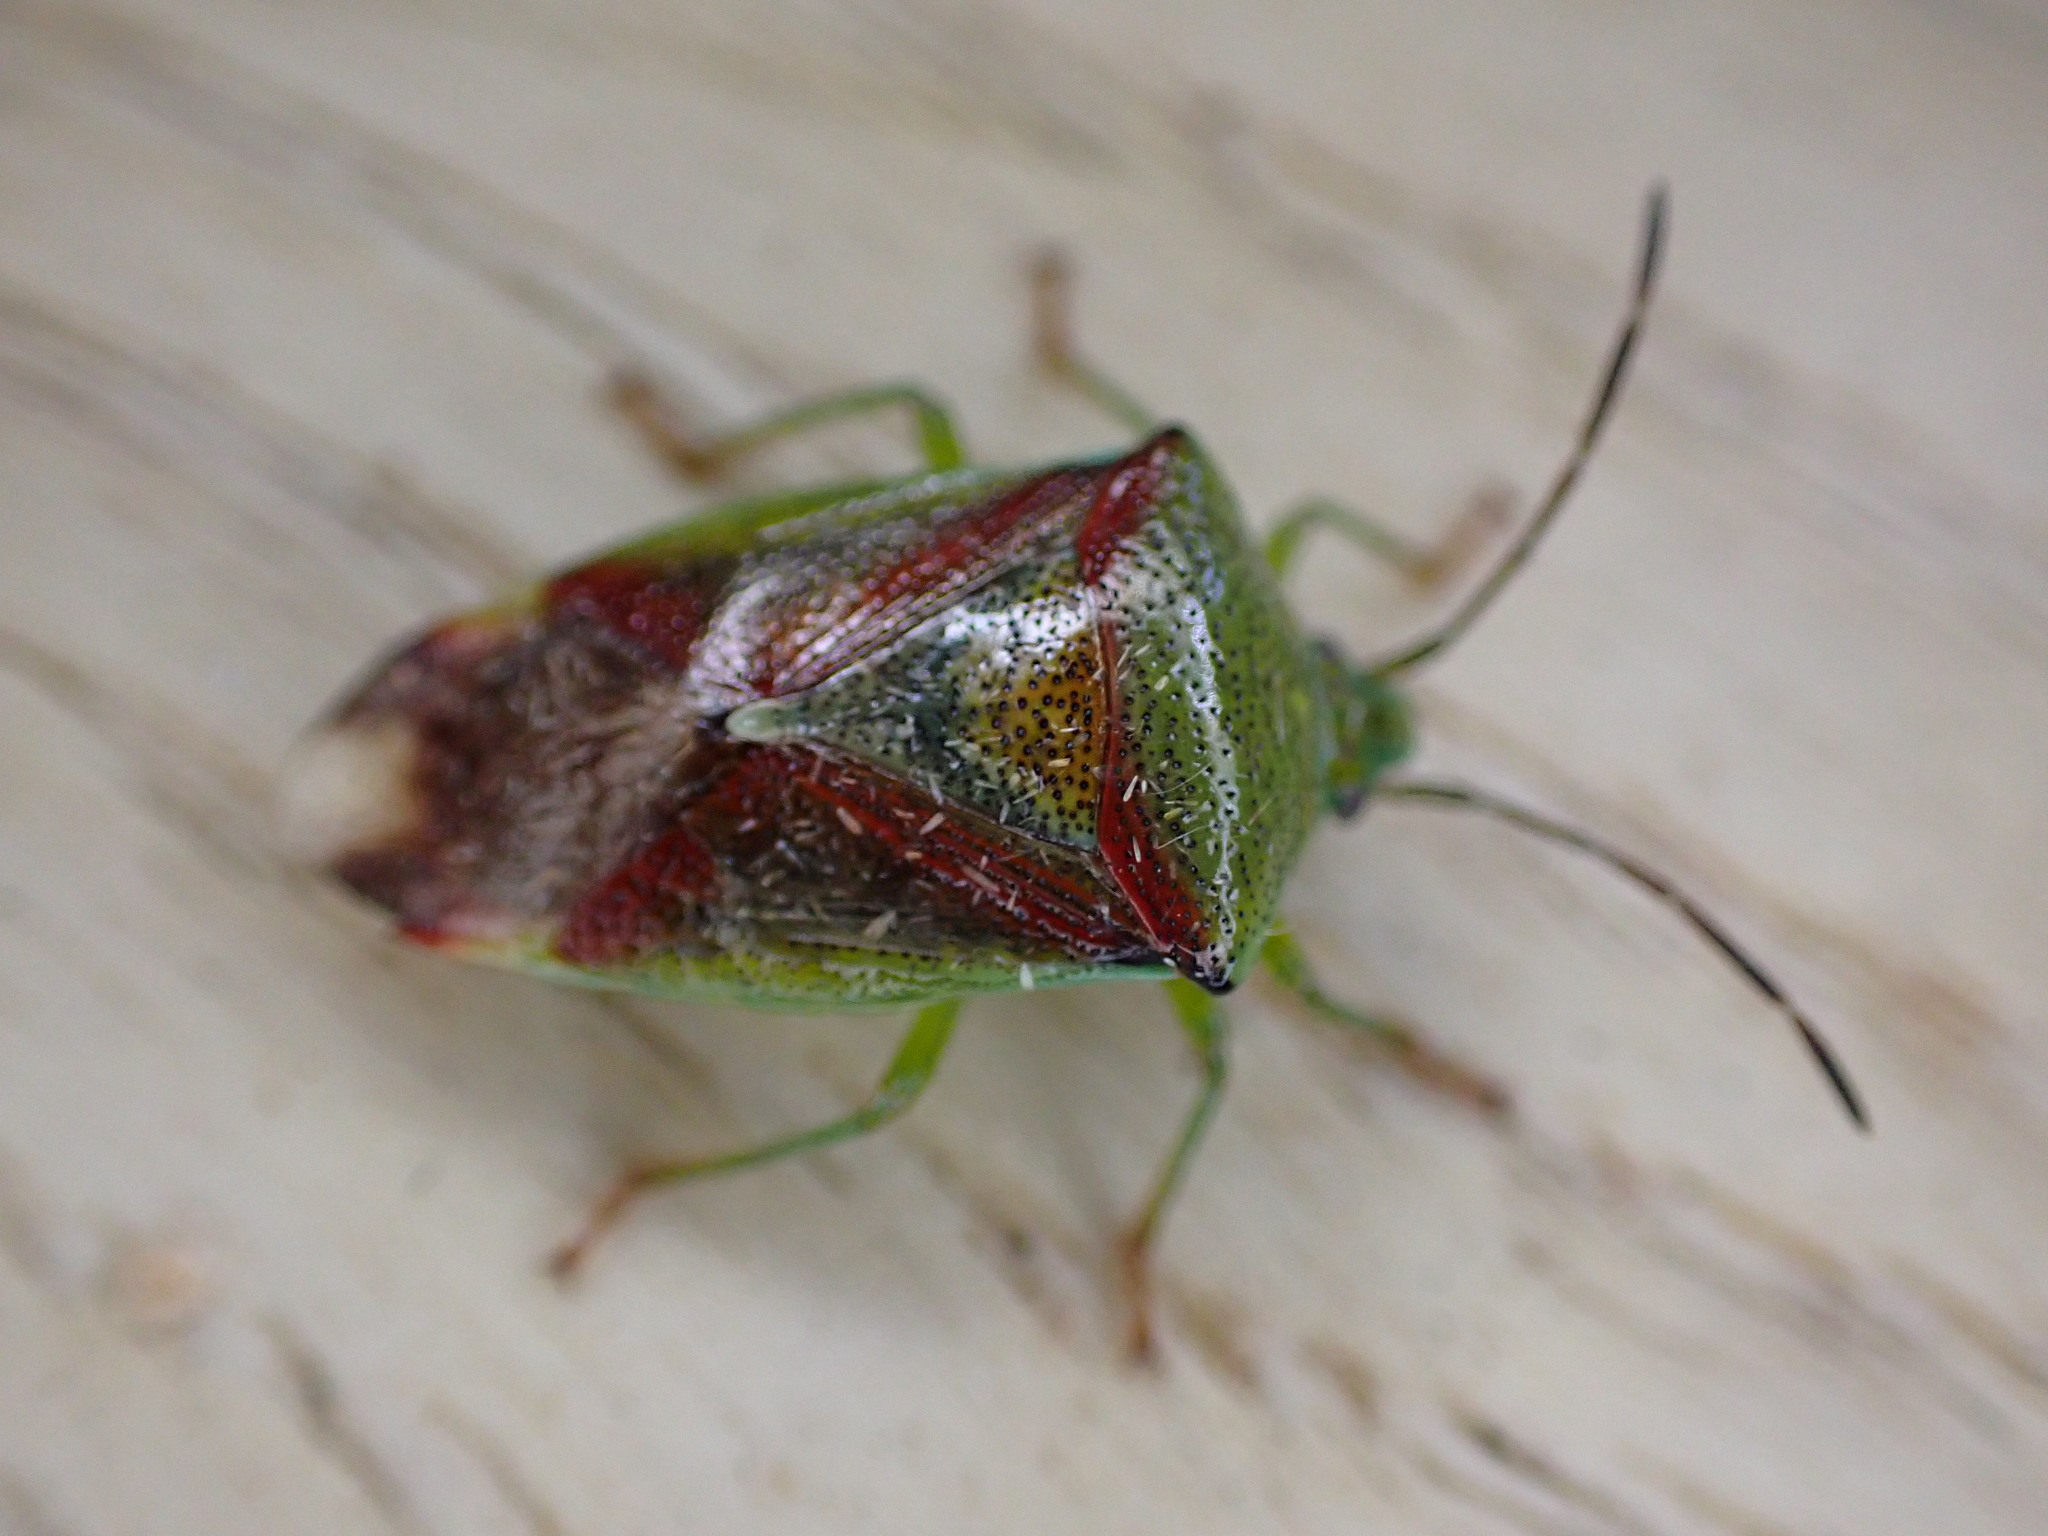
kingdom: Animalia
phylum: Arthropoda
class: Insecta
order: Hemiptera
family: Acanthosomatidae
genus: Elasmostethus
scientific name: Elasmostethus interstinctus
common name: Birch shieldbug
